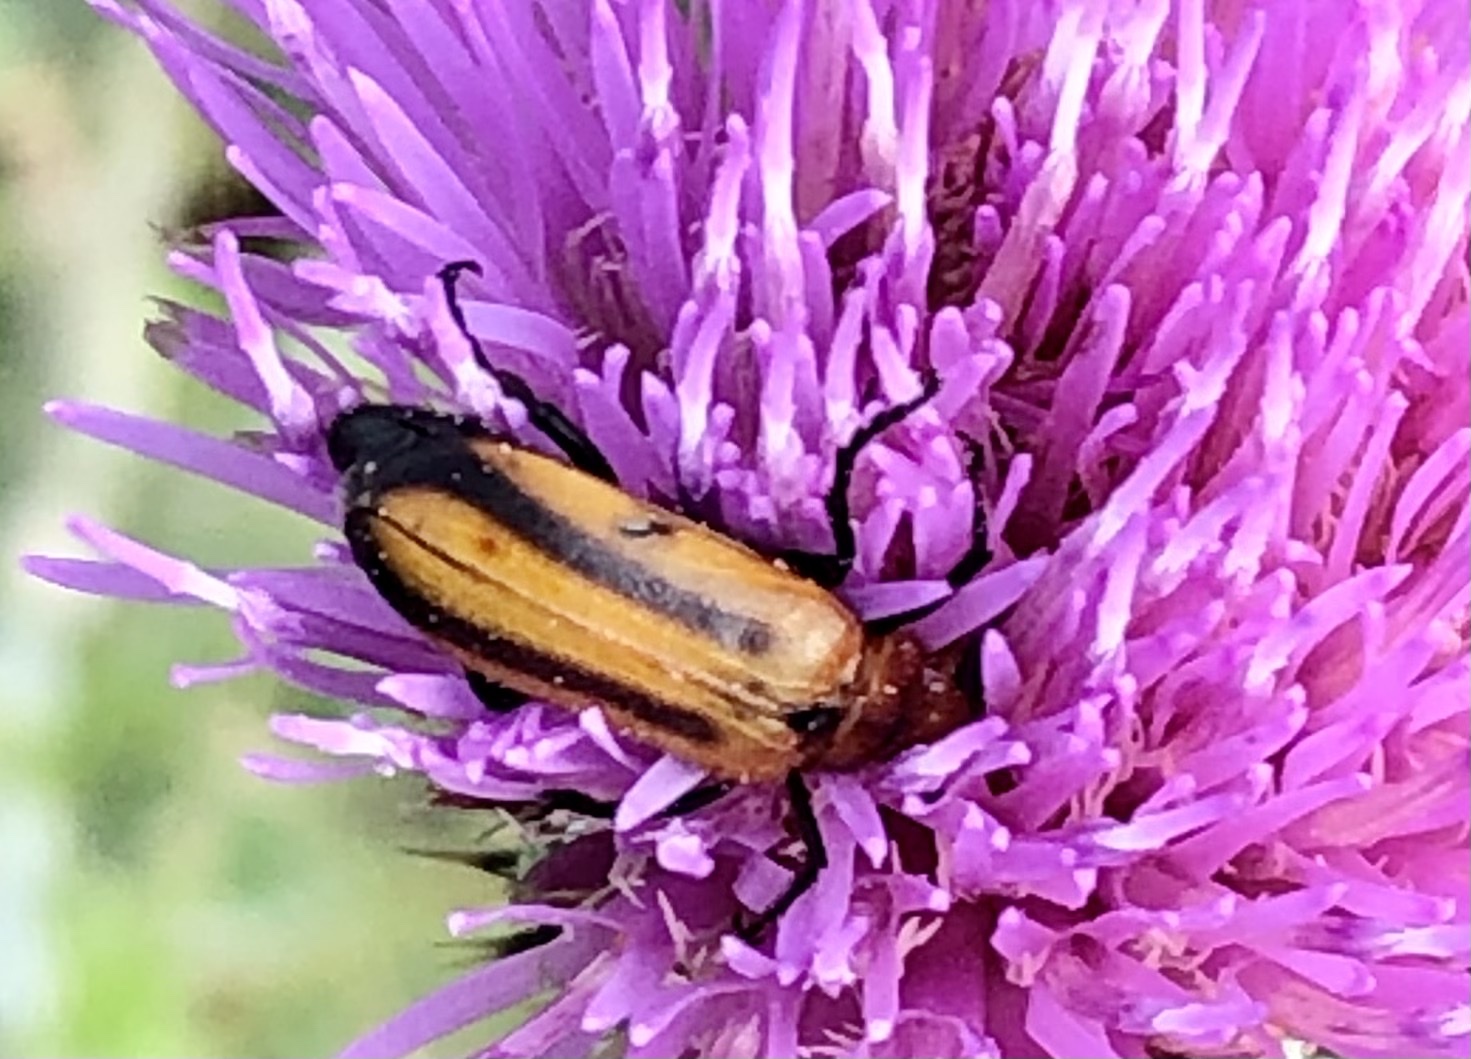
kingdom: Animalia
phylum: Arthropoda
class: Insecta
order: Coleoptera
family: Meloidae
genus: Nemognatha
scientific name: Nemognatha piazata
